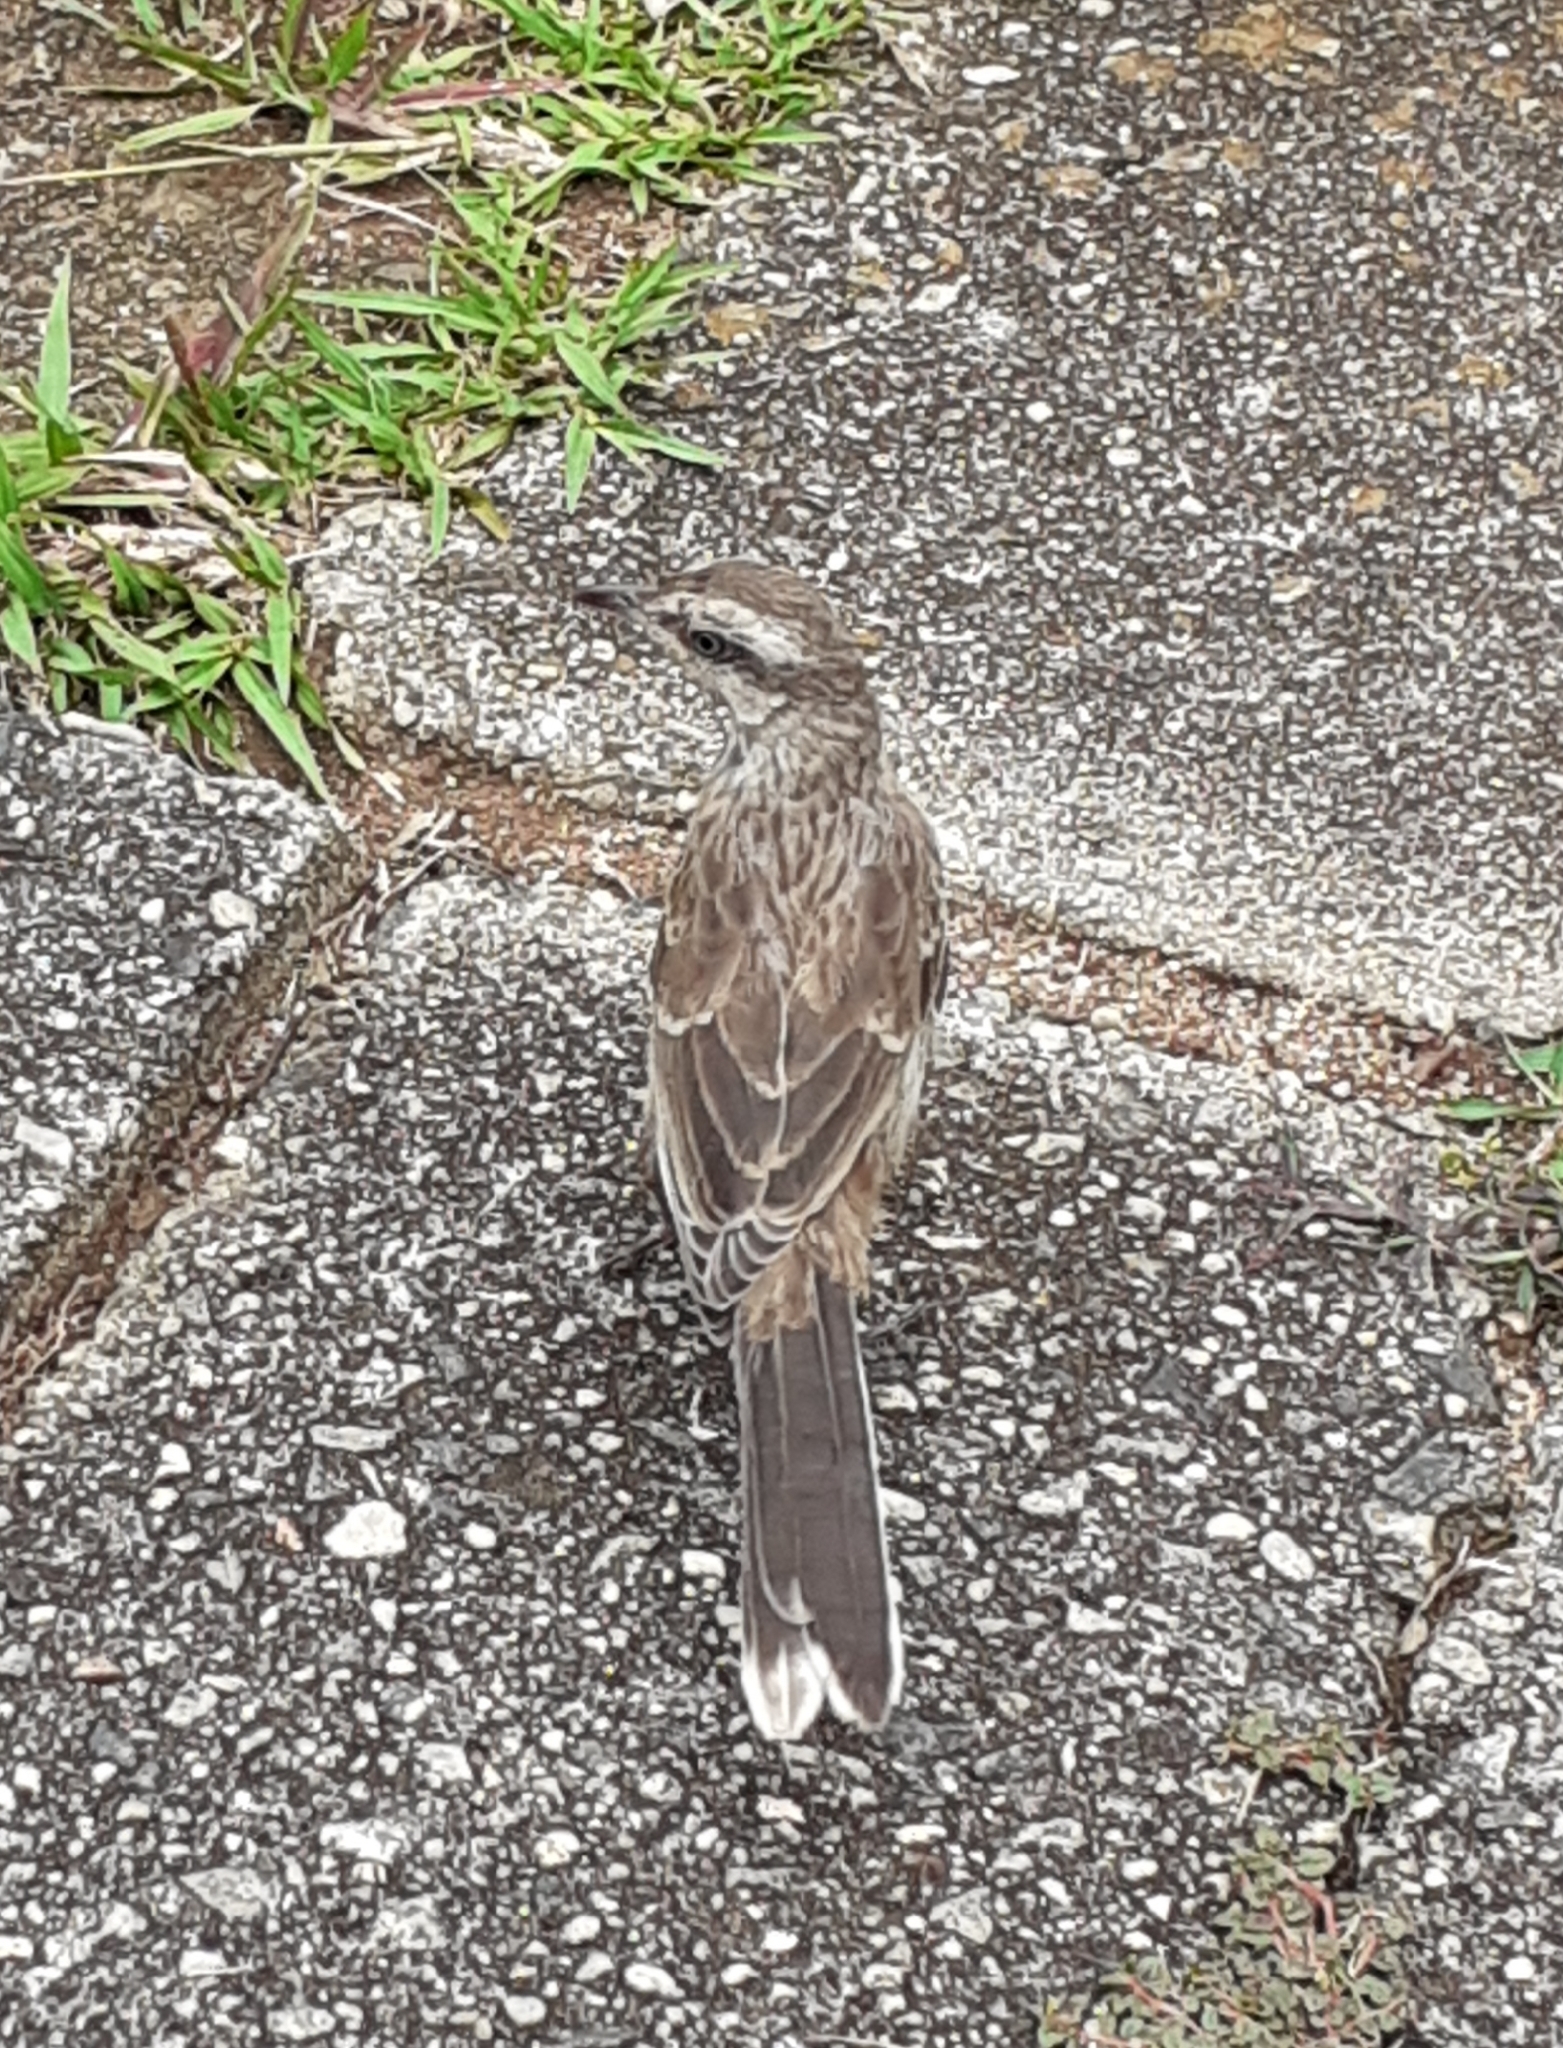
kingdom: Animalia
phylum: Chordata
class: Aves
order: Passeriformes
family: Mimidae
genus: Mimus
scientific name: Mimus saturninus
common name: Chalk-browed mockingbird
